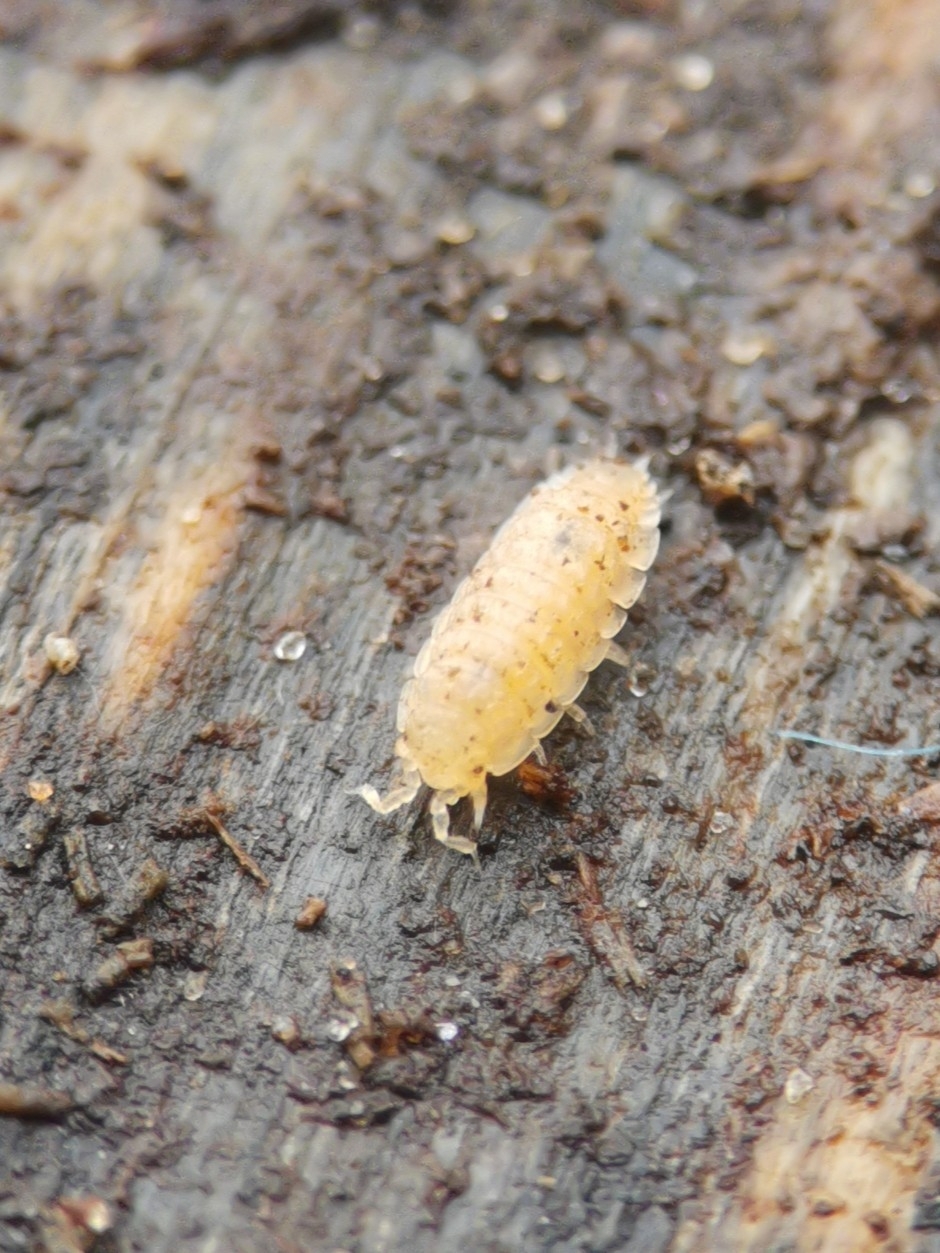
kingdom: Animalia
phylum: Arthropoda
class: Malacostraca
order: Isopoda
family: Trichoniscidae
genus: Haplophthalmus
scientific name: Haplophthalmus danicus
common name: Pillbug
